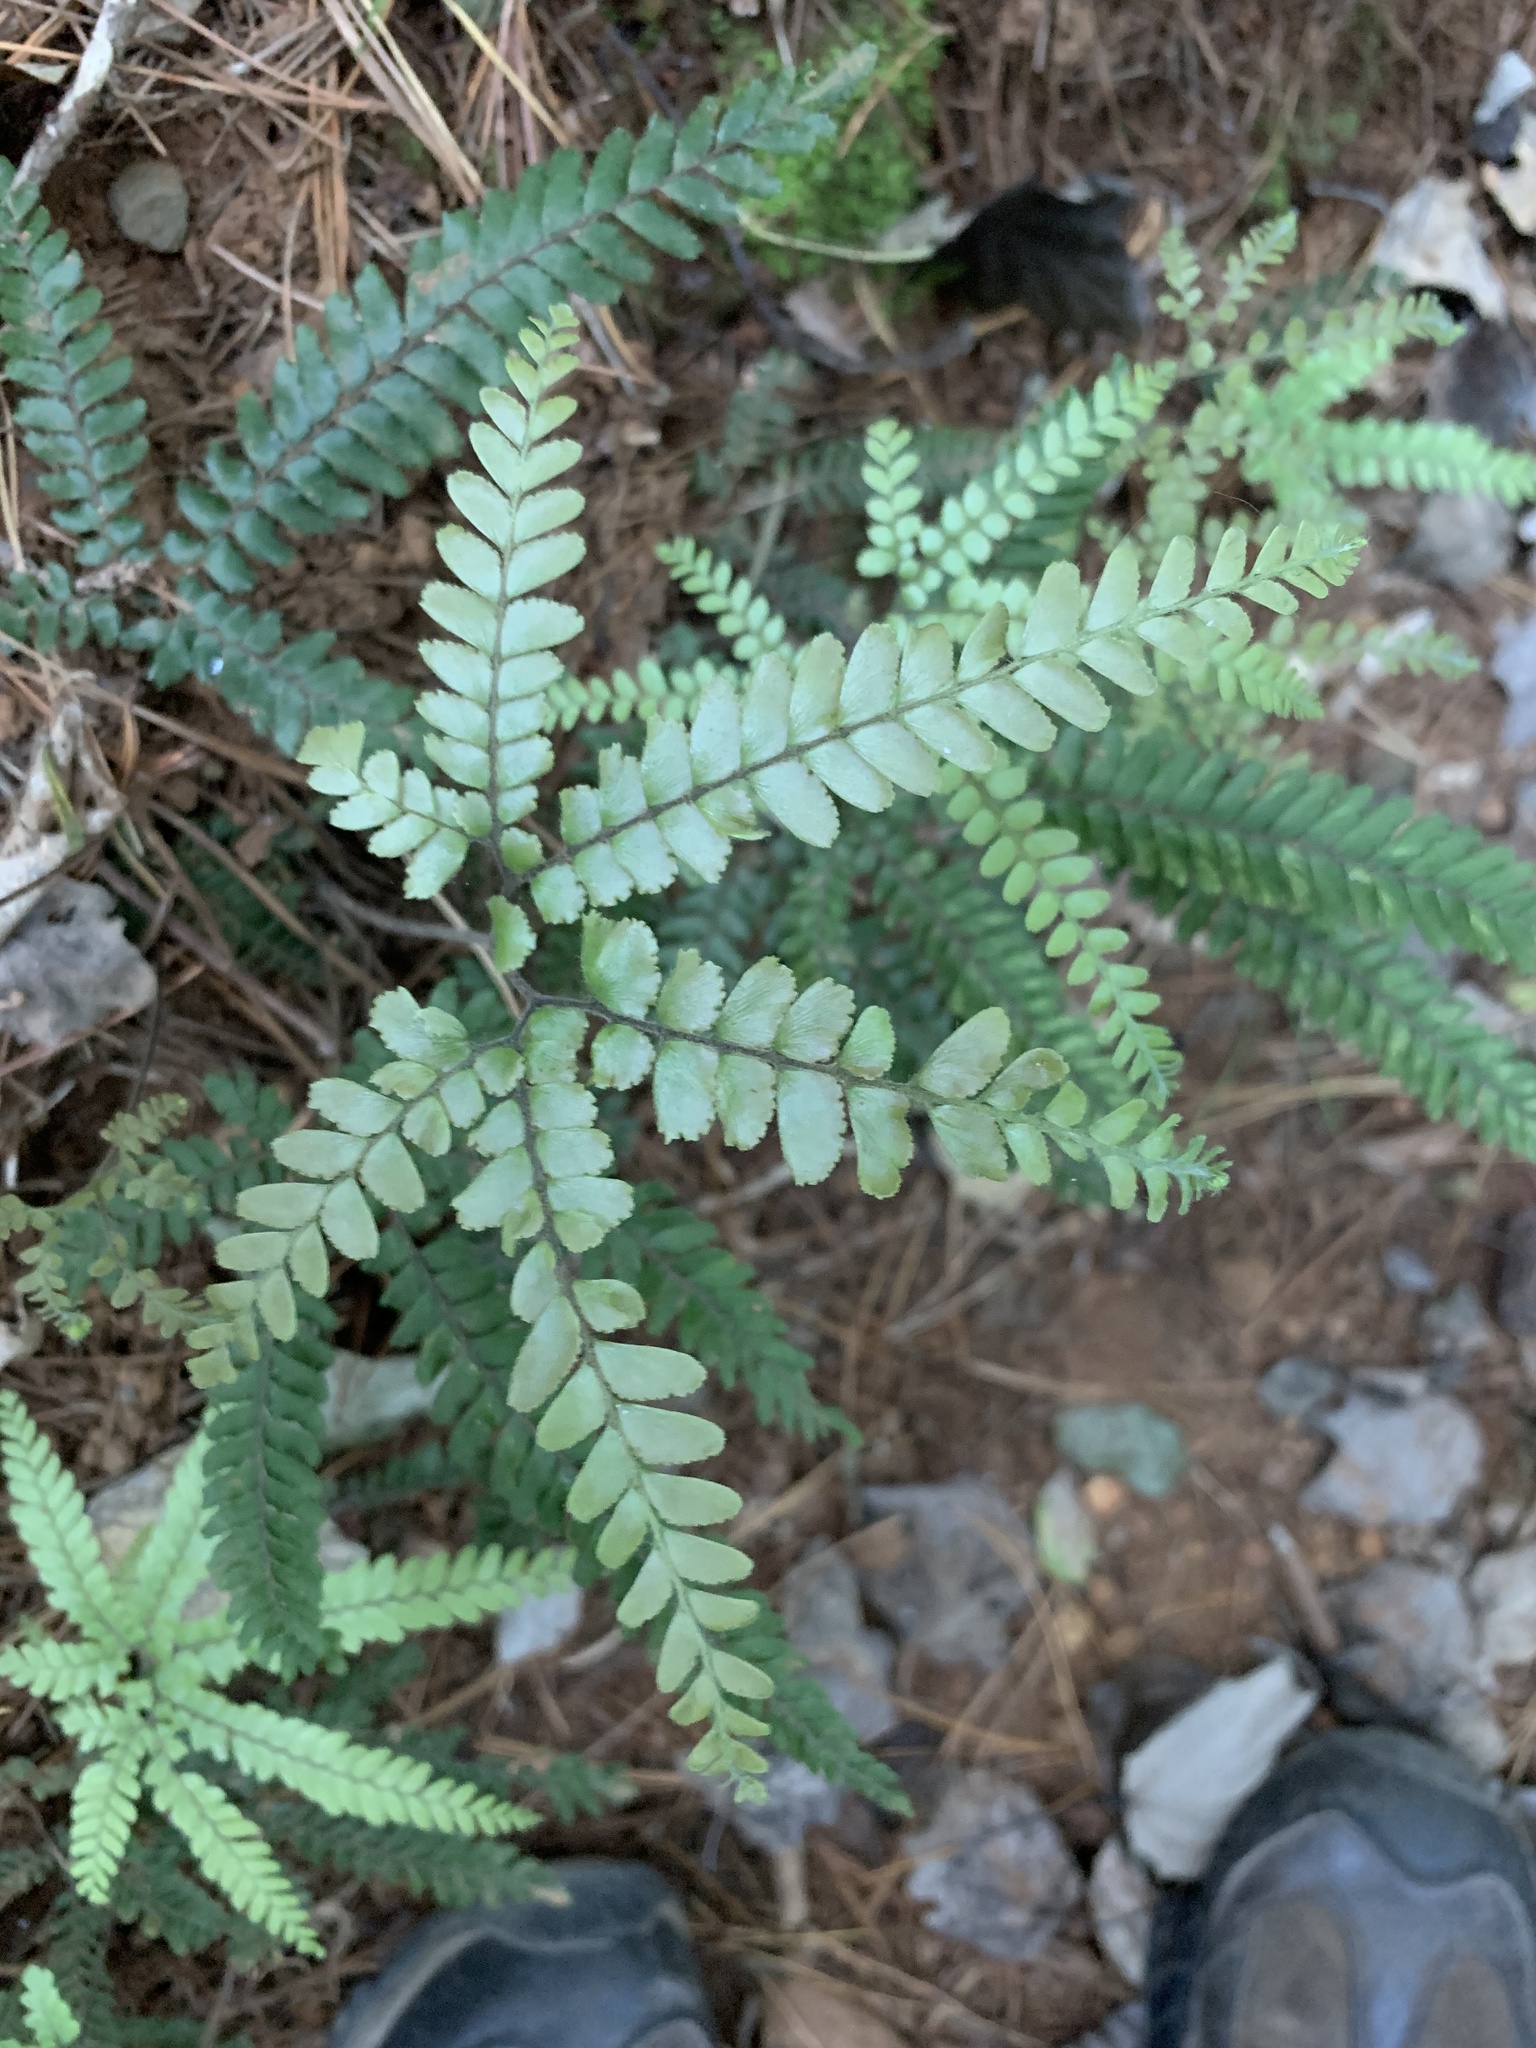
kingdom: Plantae
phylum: Tracheophyta
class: Polypodiopsida
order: Polypodiales
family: Pteridaceae
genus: Adiantum
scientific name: Adiantum hispidulum
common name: Rough maidenhair
